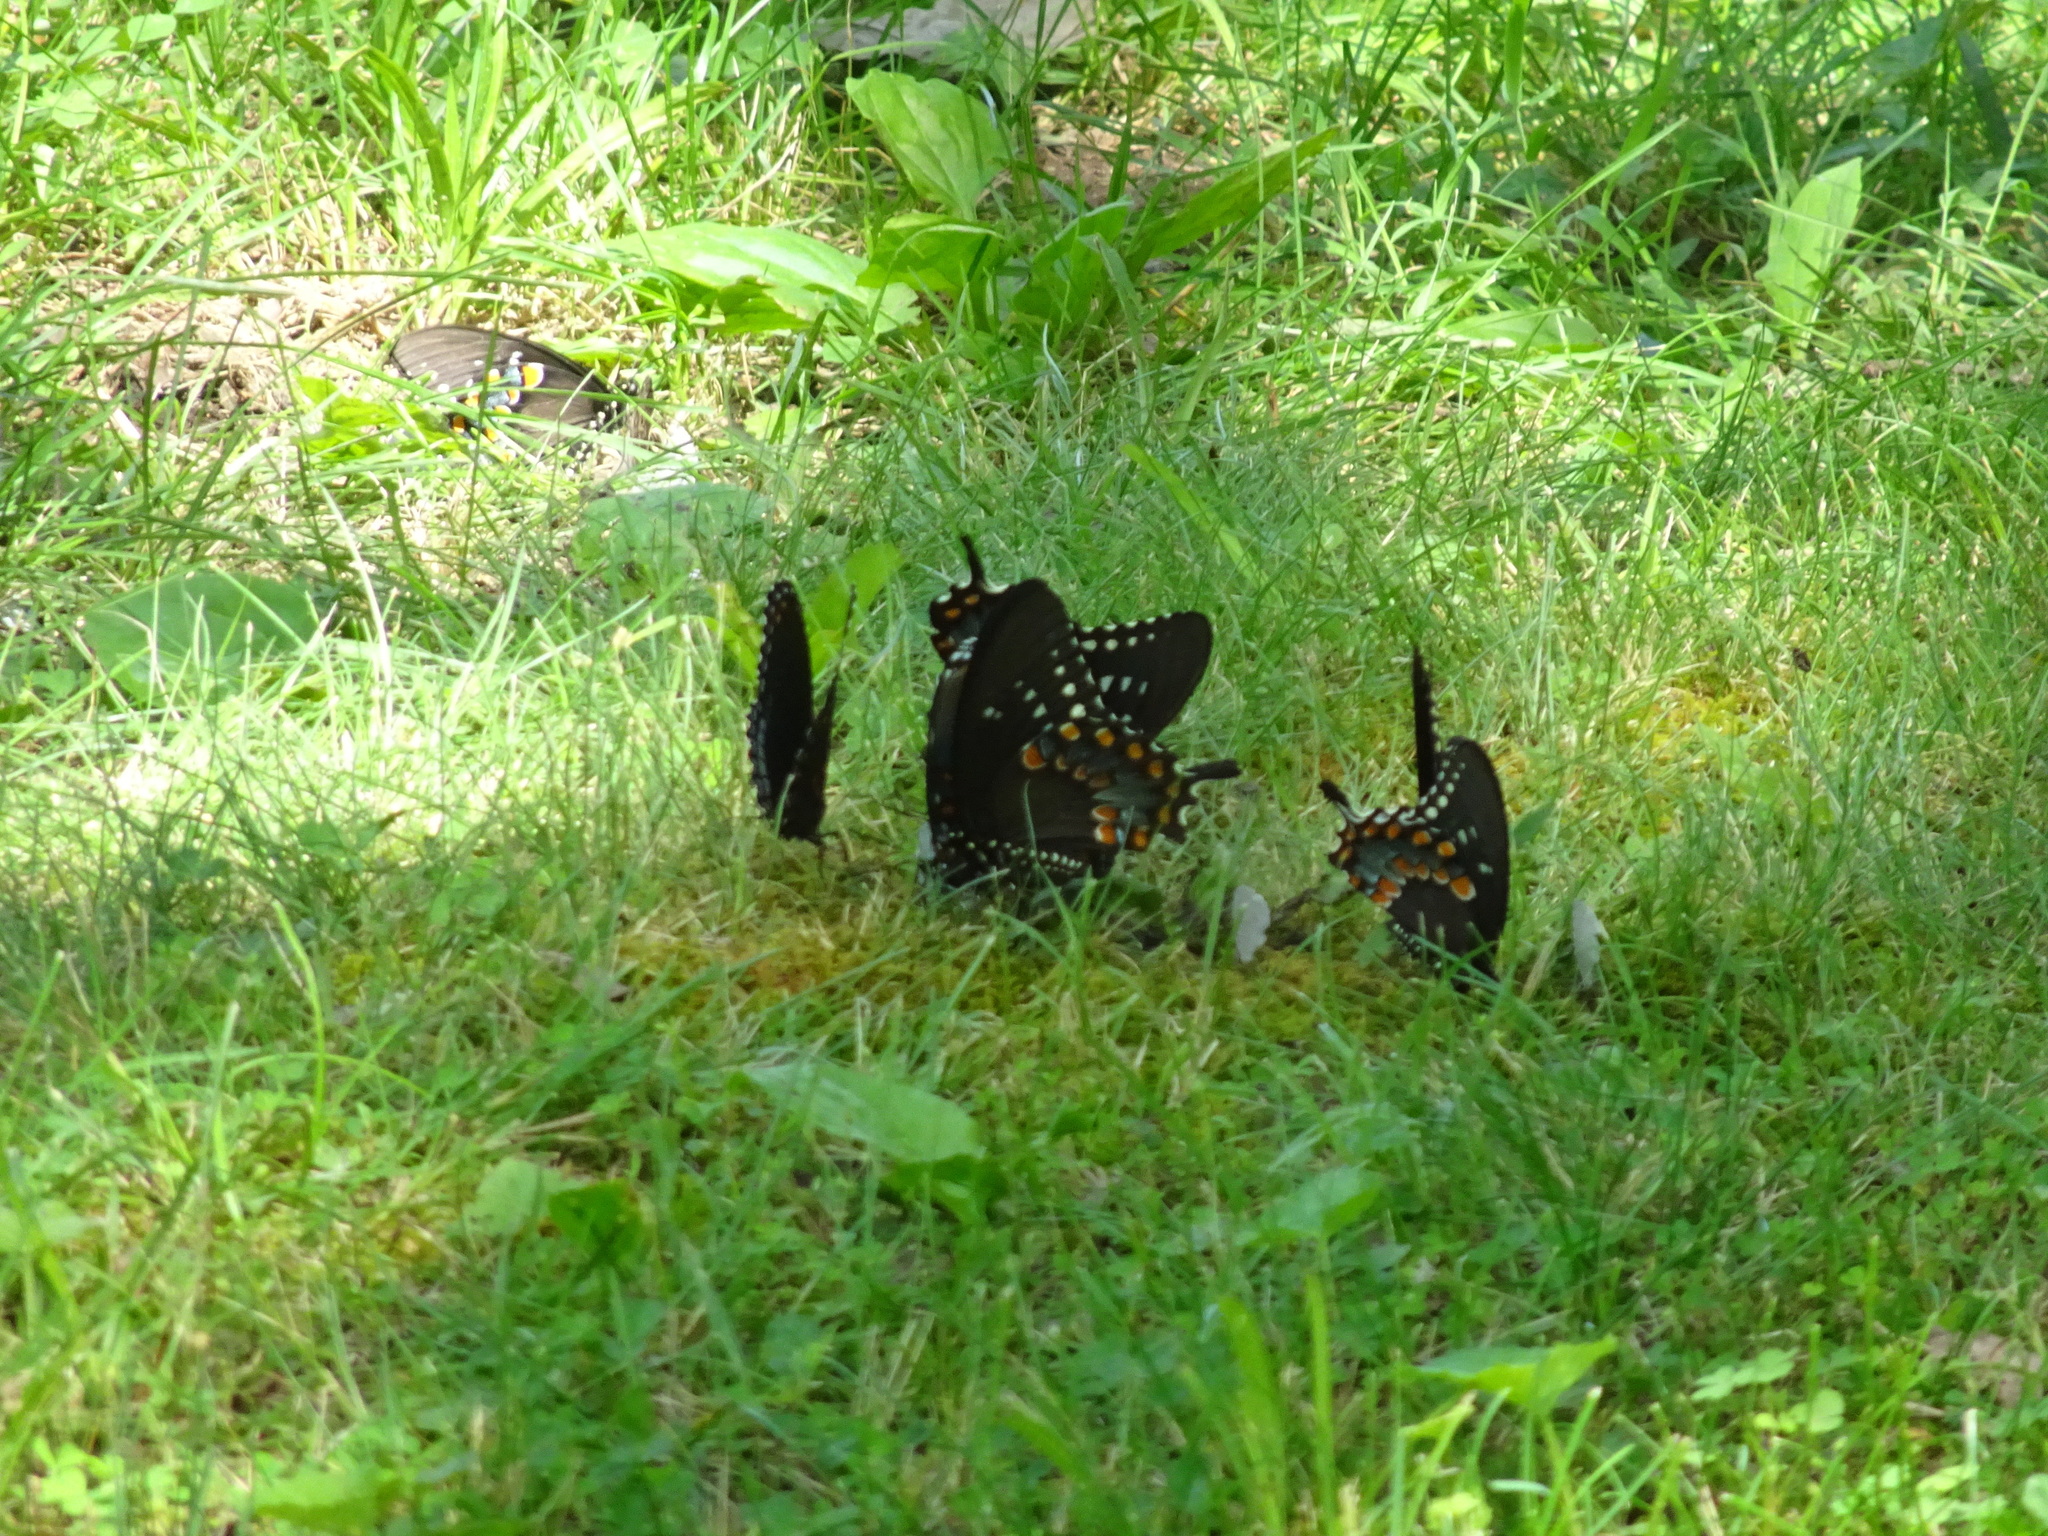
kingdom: Animalia
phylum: Arthropoda
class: Insecta
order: Lepidoptera
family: Papilionidae
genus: Papilio
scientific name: Papilio troilus
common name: Spicebush swallowtail
